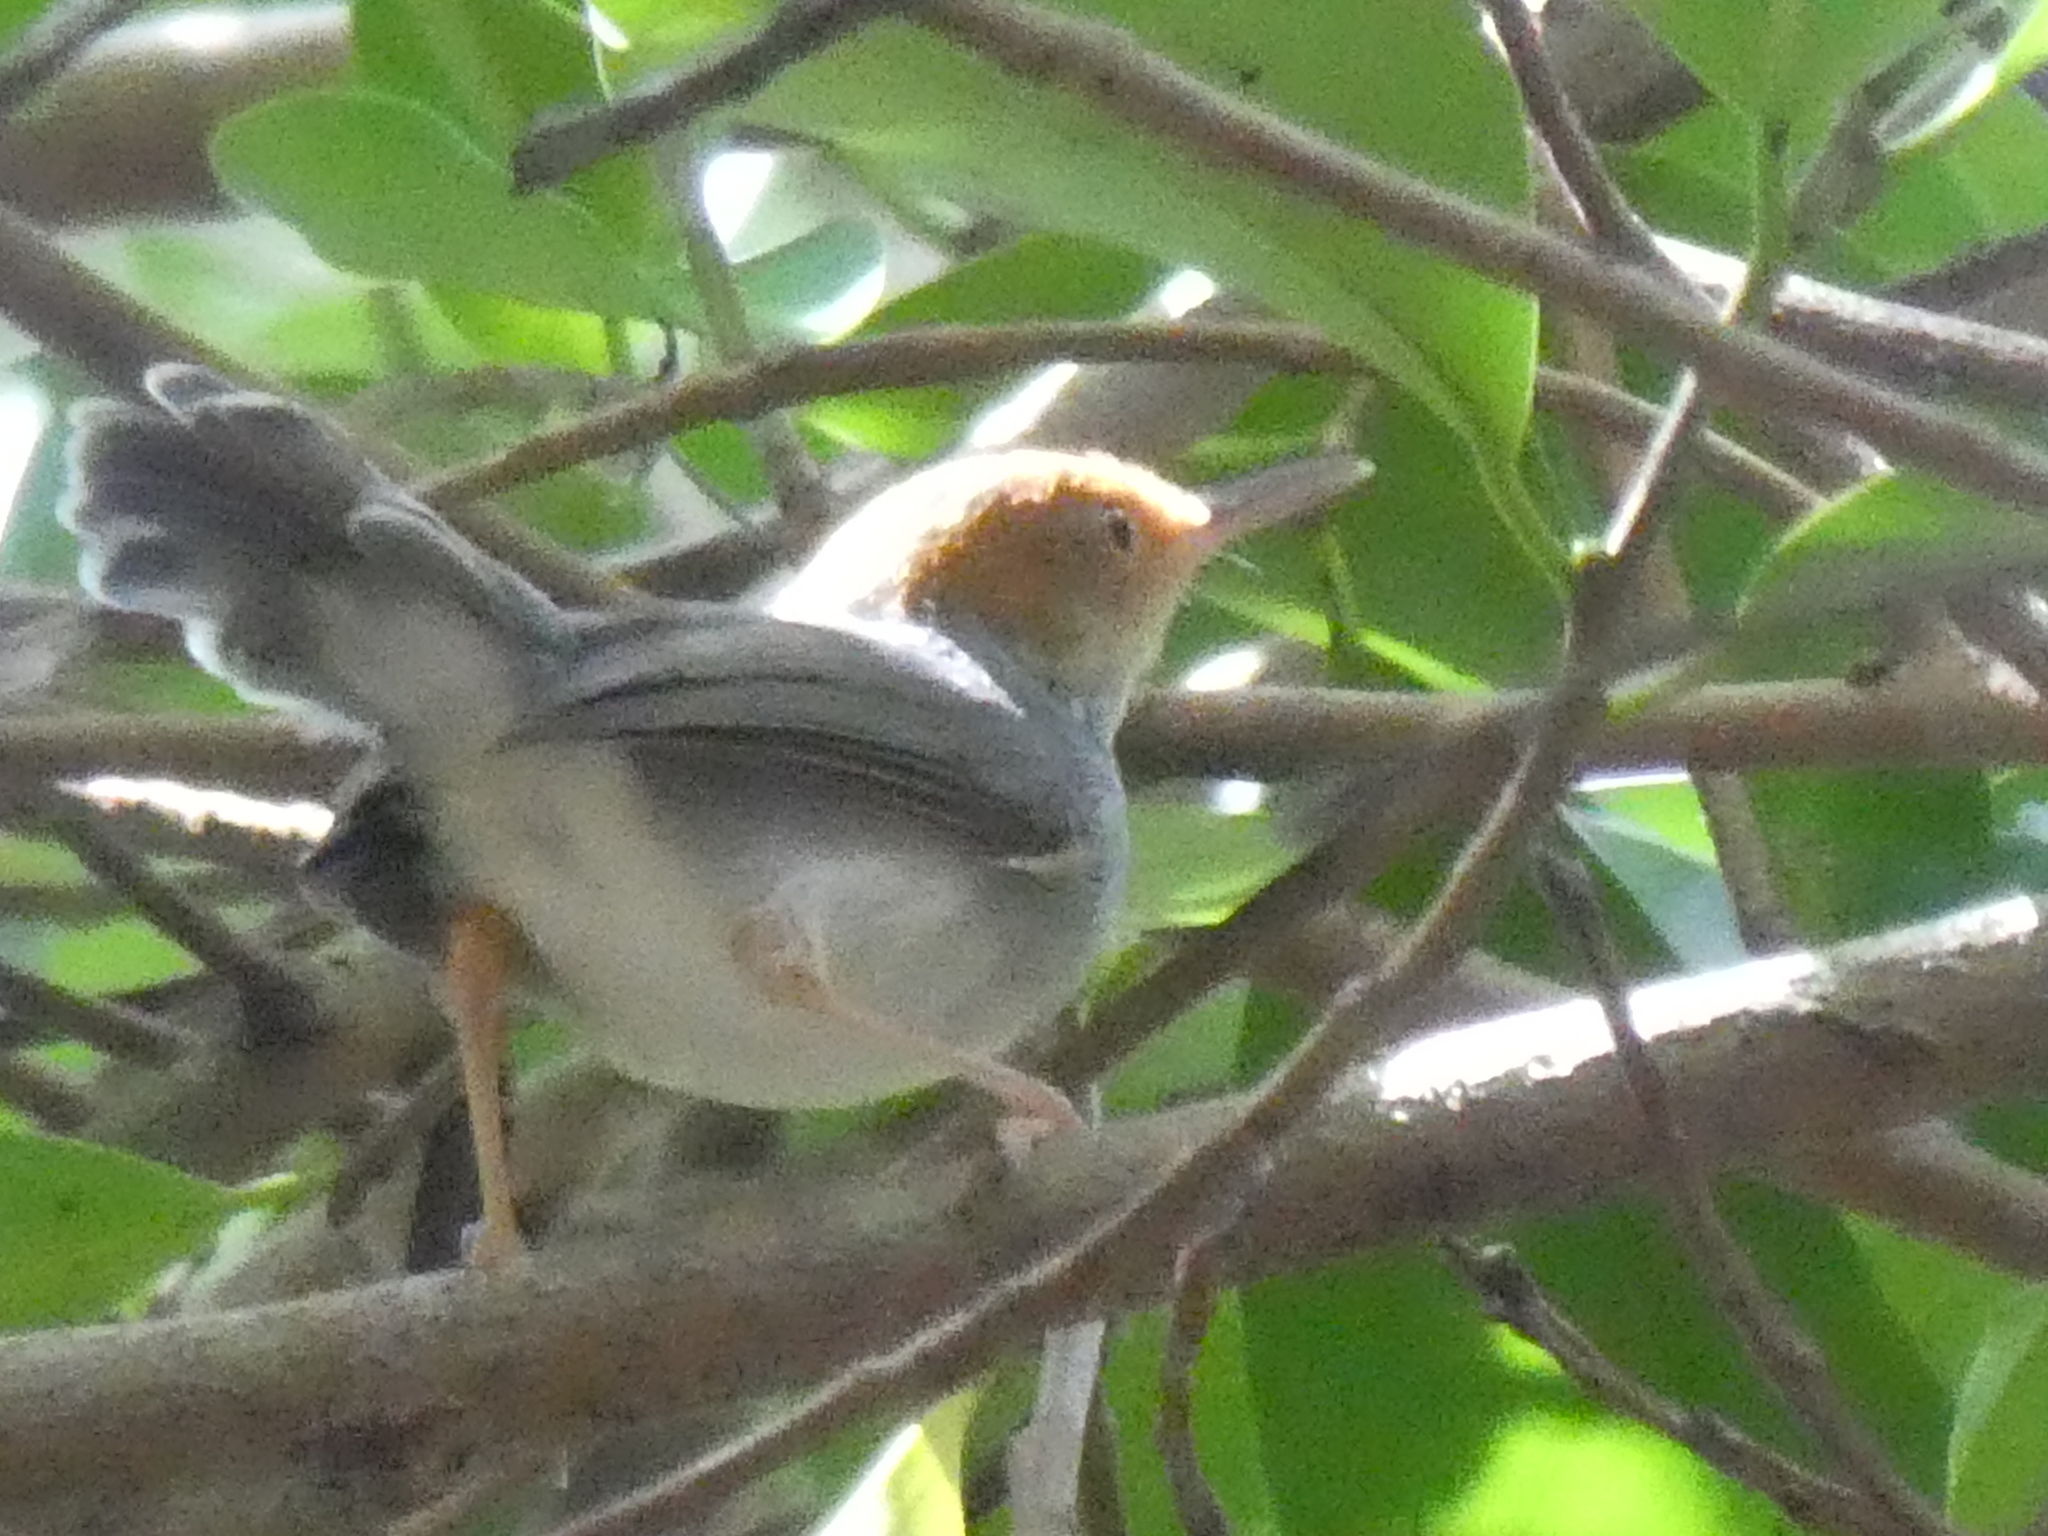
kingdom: Animalia
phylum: Chordata
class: Aves
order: Passeriformes
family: Cisticolidae
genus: Orthotomus
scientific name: Orthotomus ruficeps
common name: Ashy tailorbird
